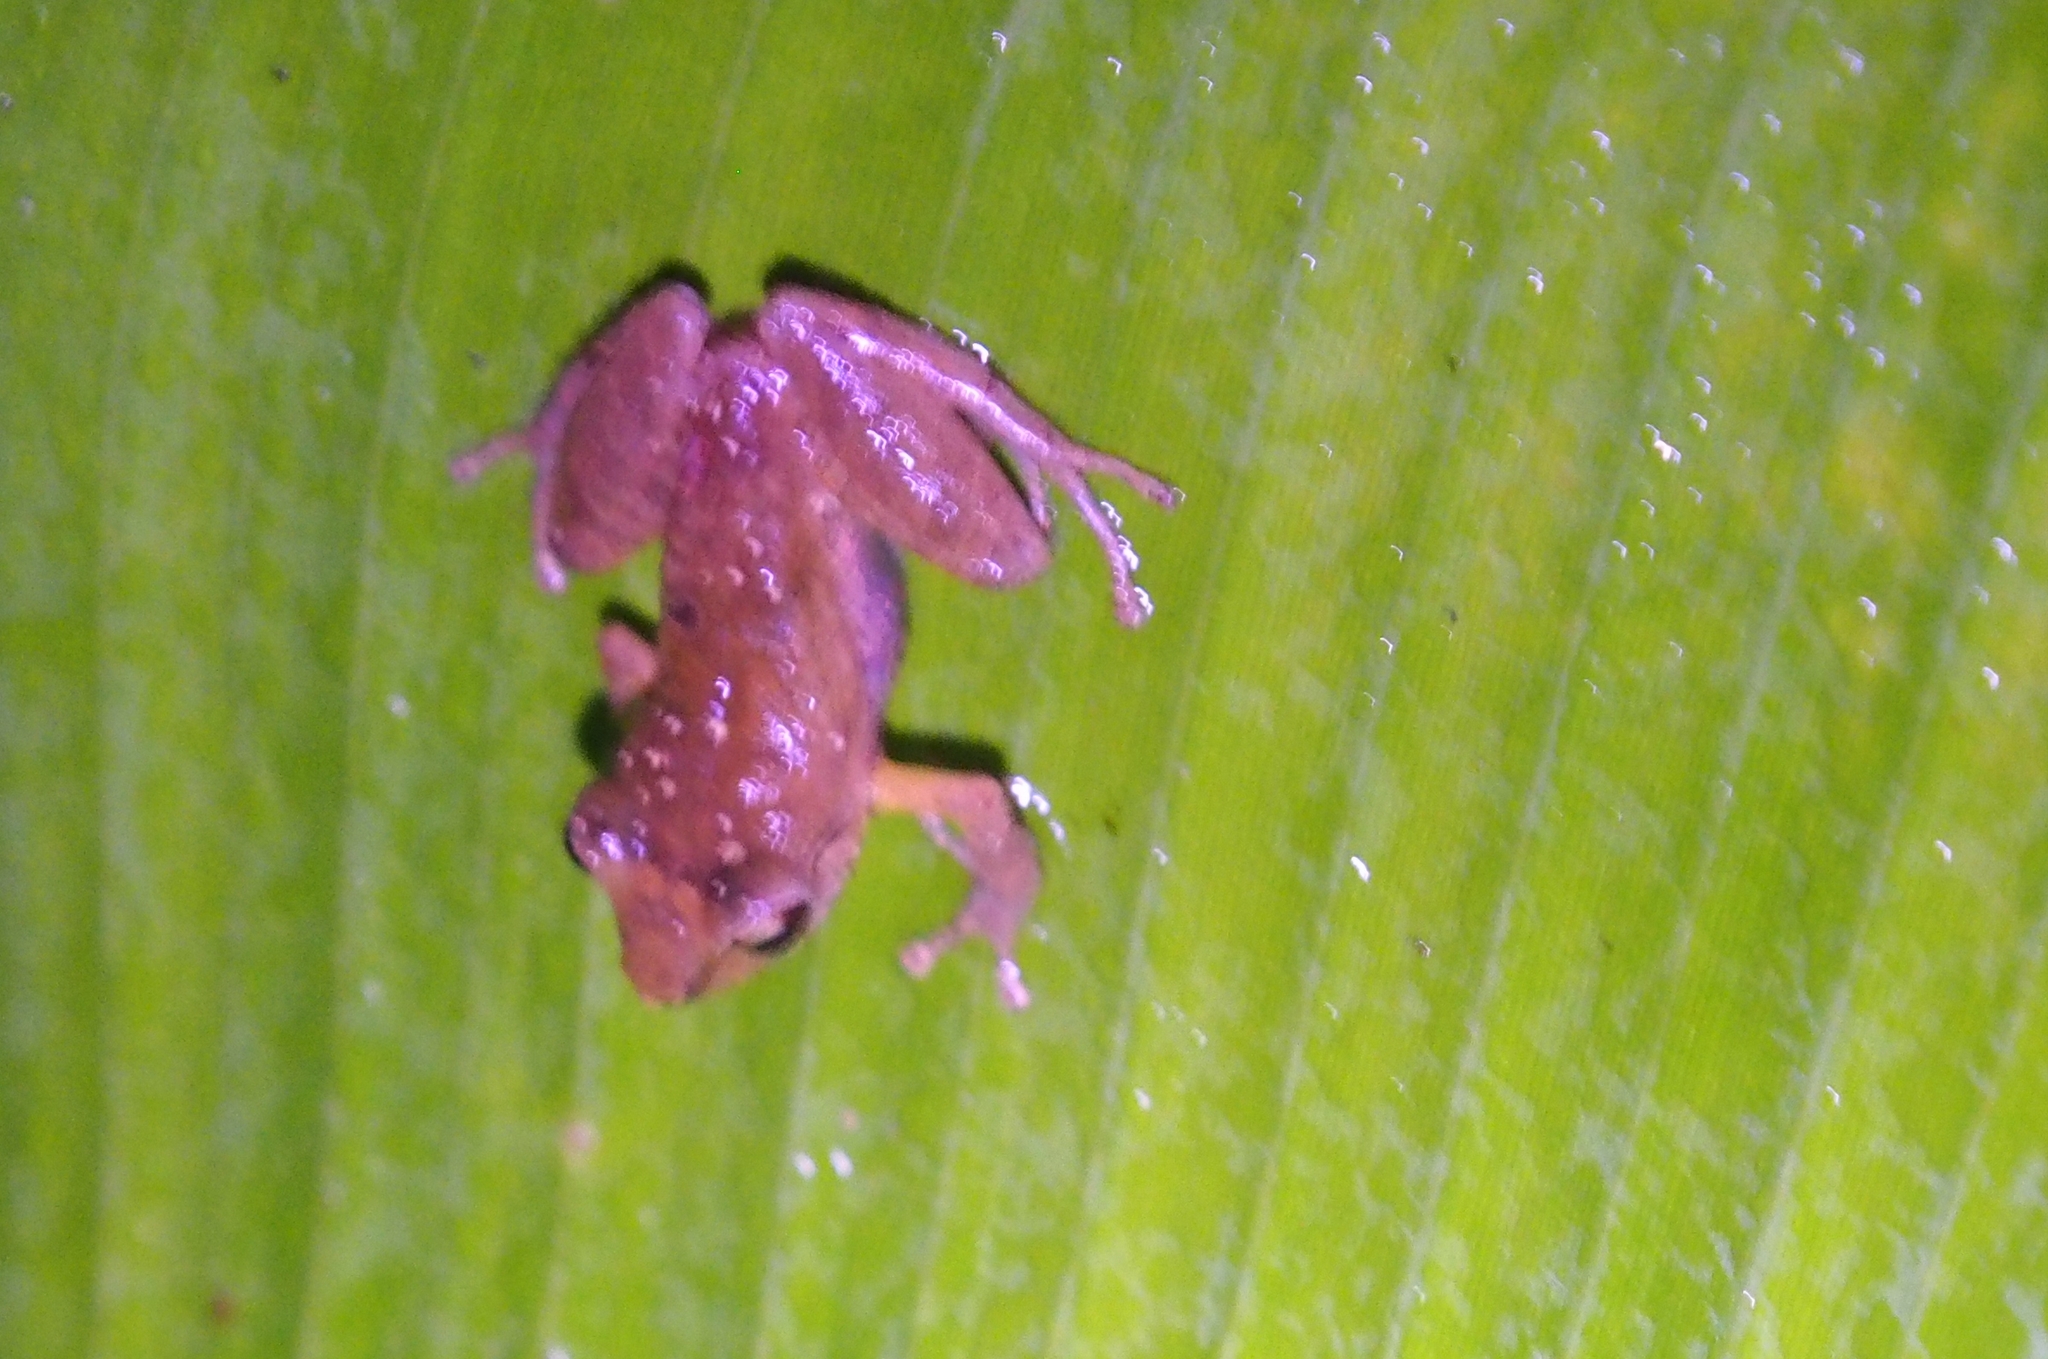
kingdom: Animalia
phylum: Chordata
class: Amphibia
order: Anura
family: Craugastoridae
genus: Pristimantis
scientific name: Pristimantis ridens
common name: Rio san juan robber frog
